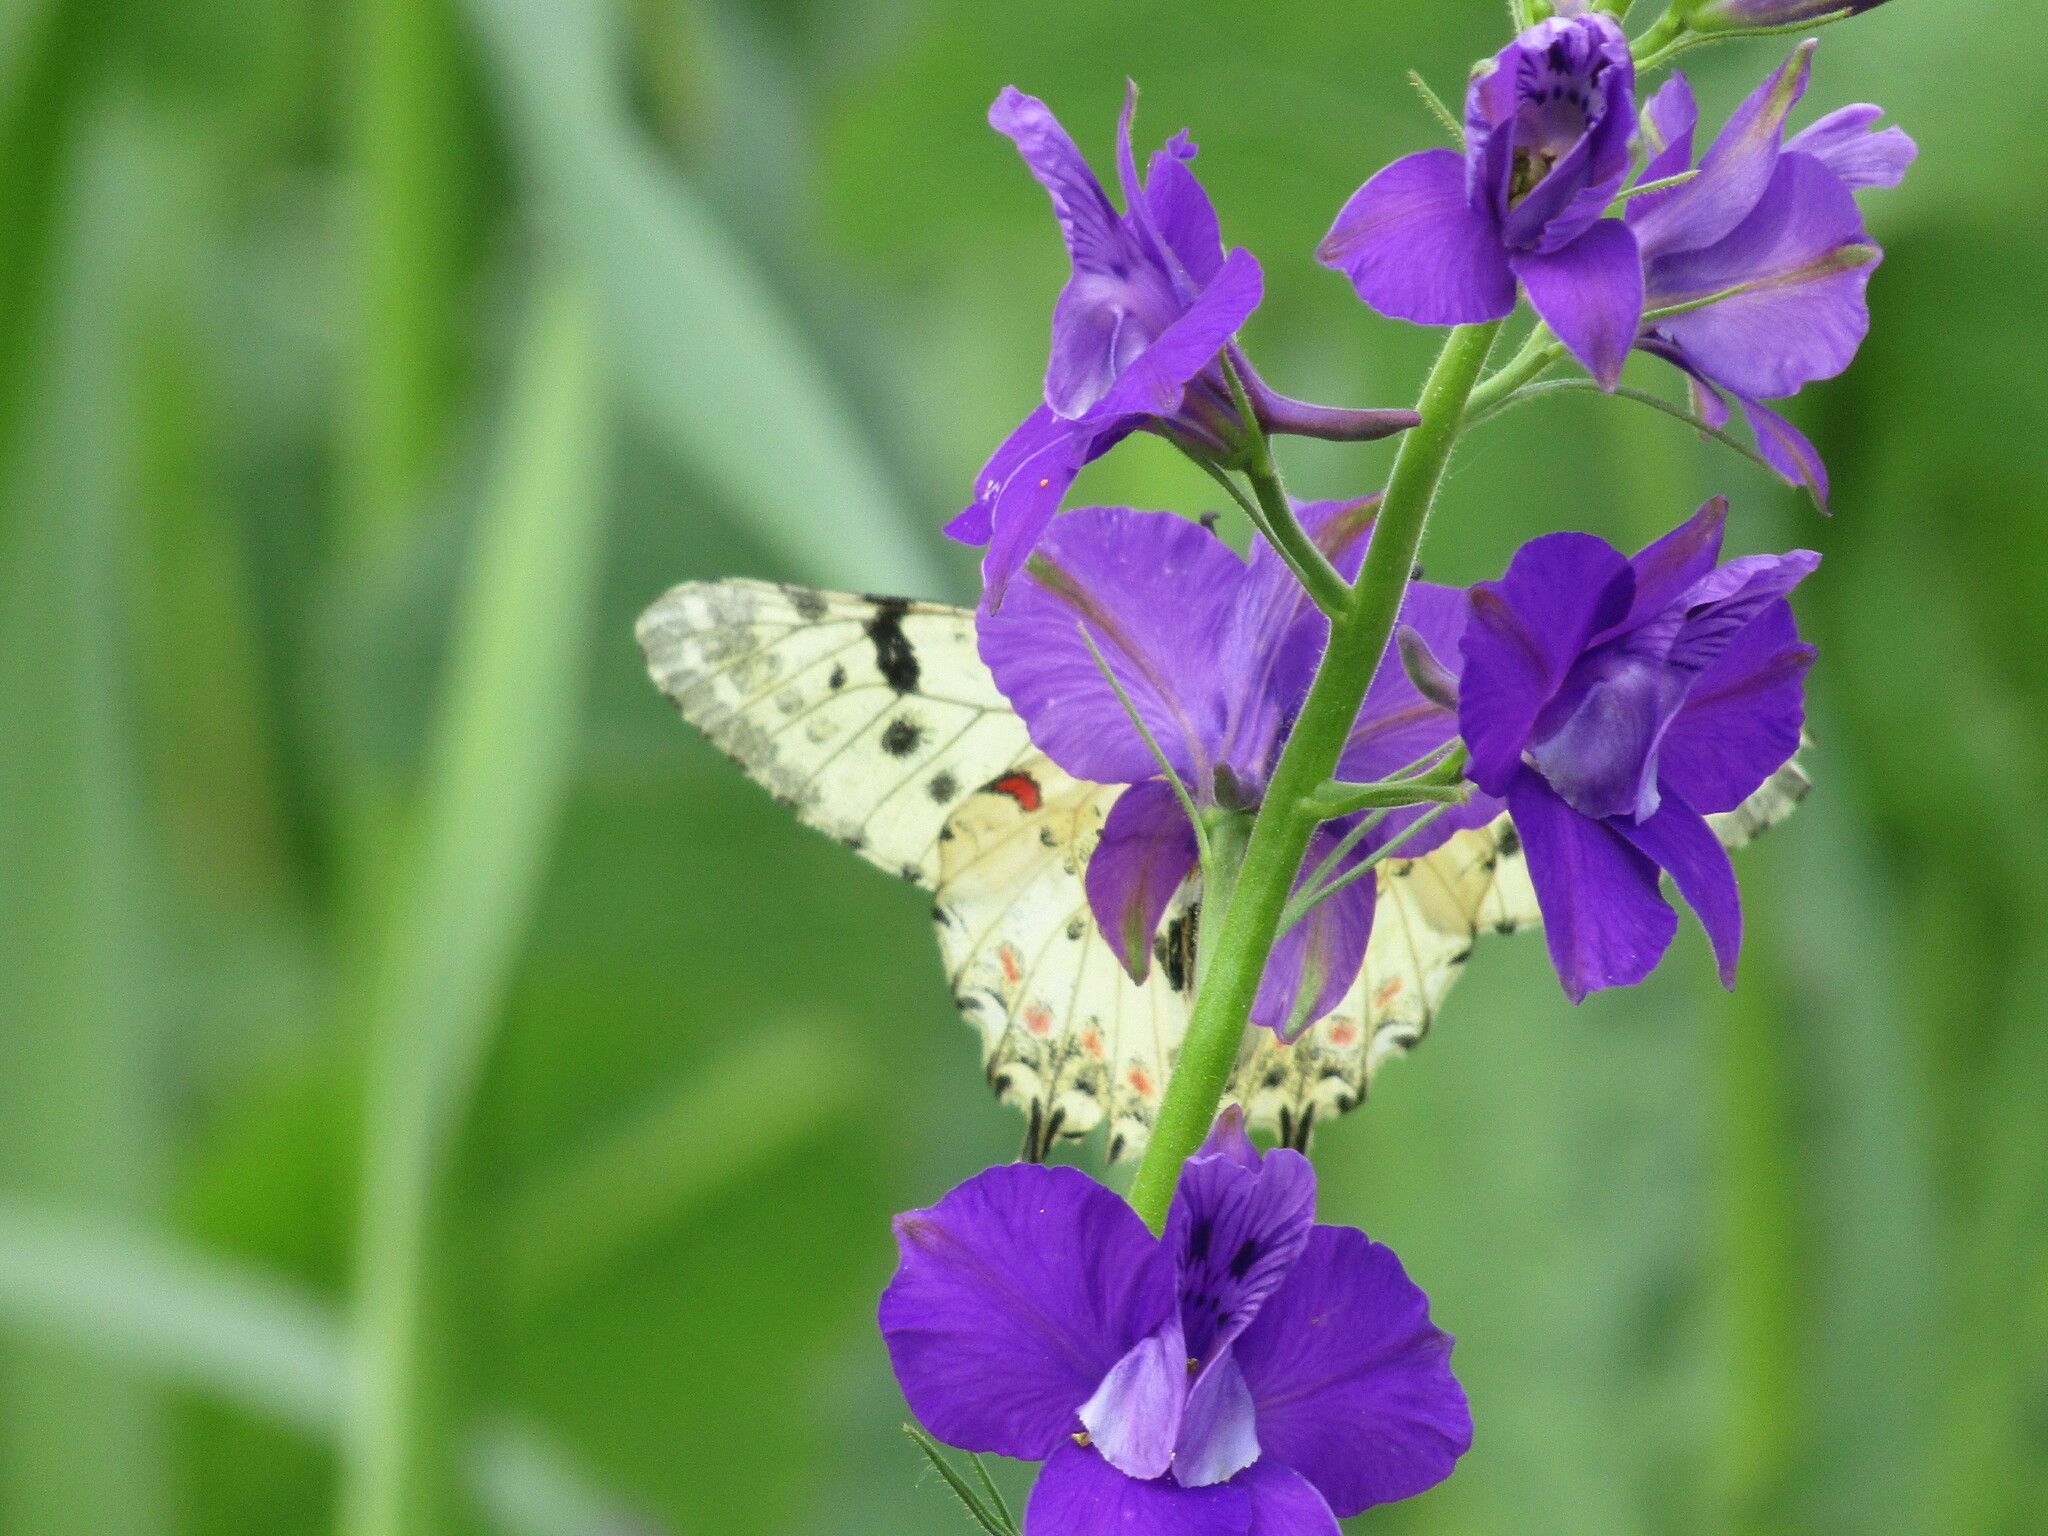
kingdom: Animalia
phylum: Arthropoda
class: Insecta
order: Lepidoptera
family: Papilionidae
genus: Zerynthia
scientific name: Zerynthia cerisy
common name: Eastern festoon
